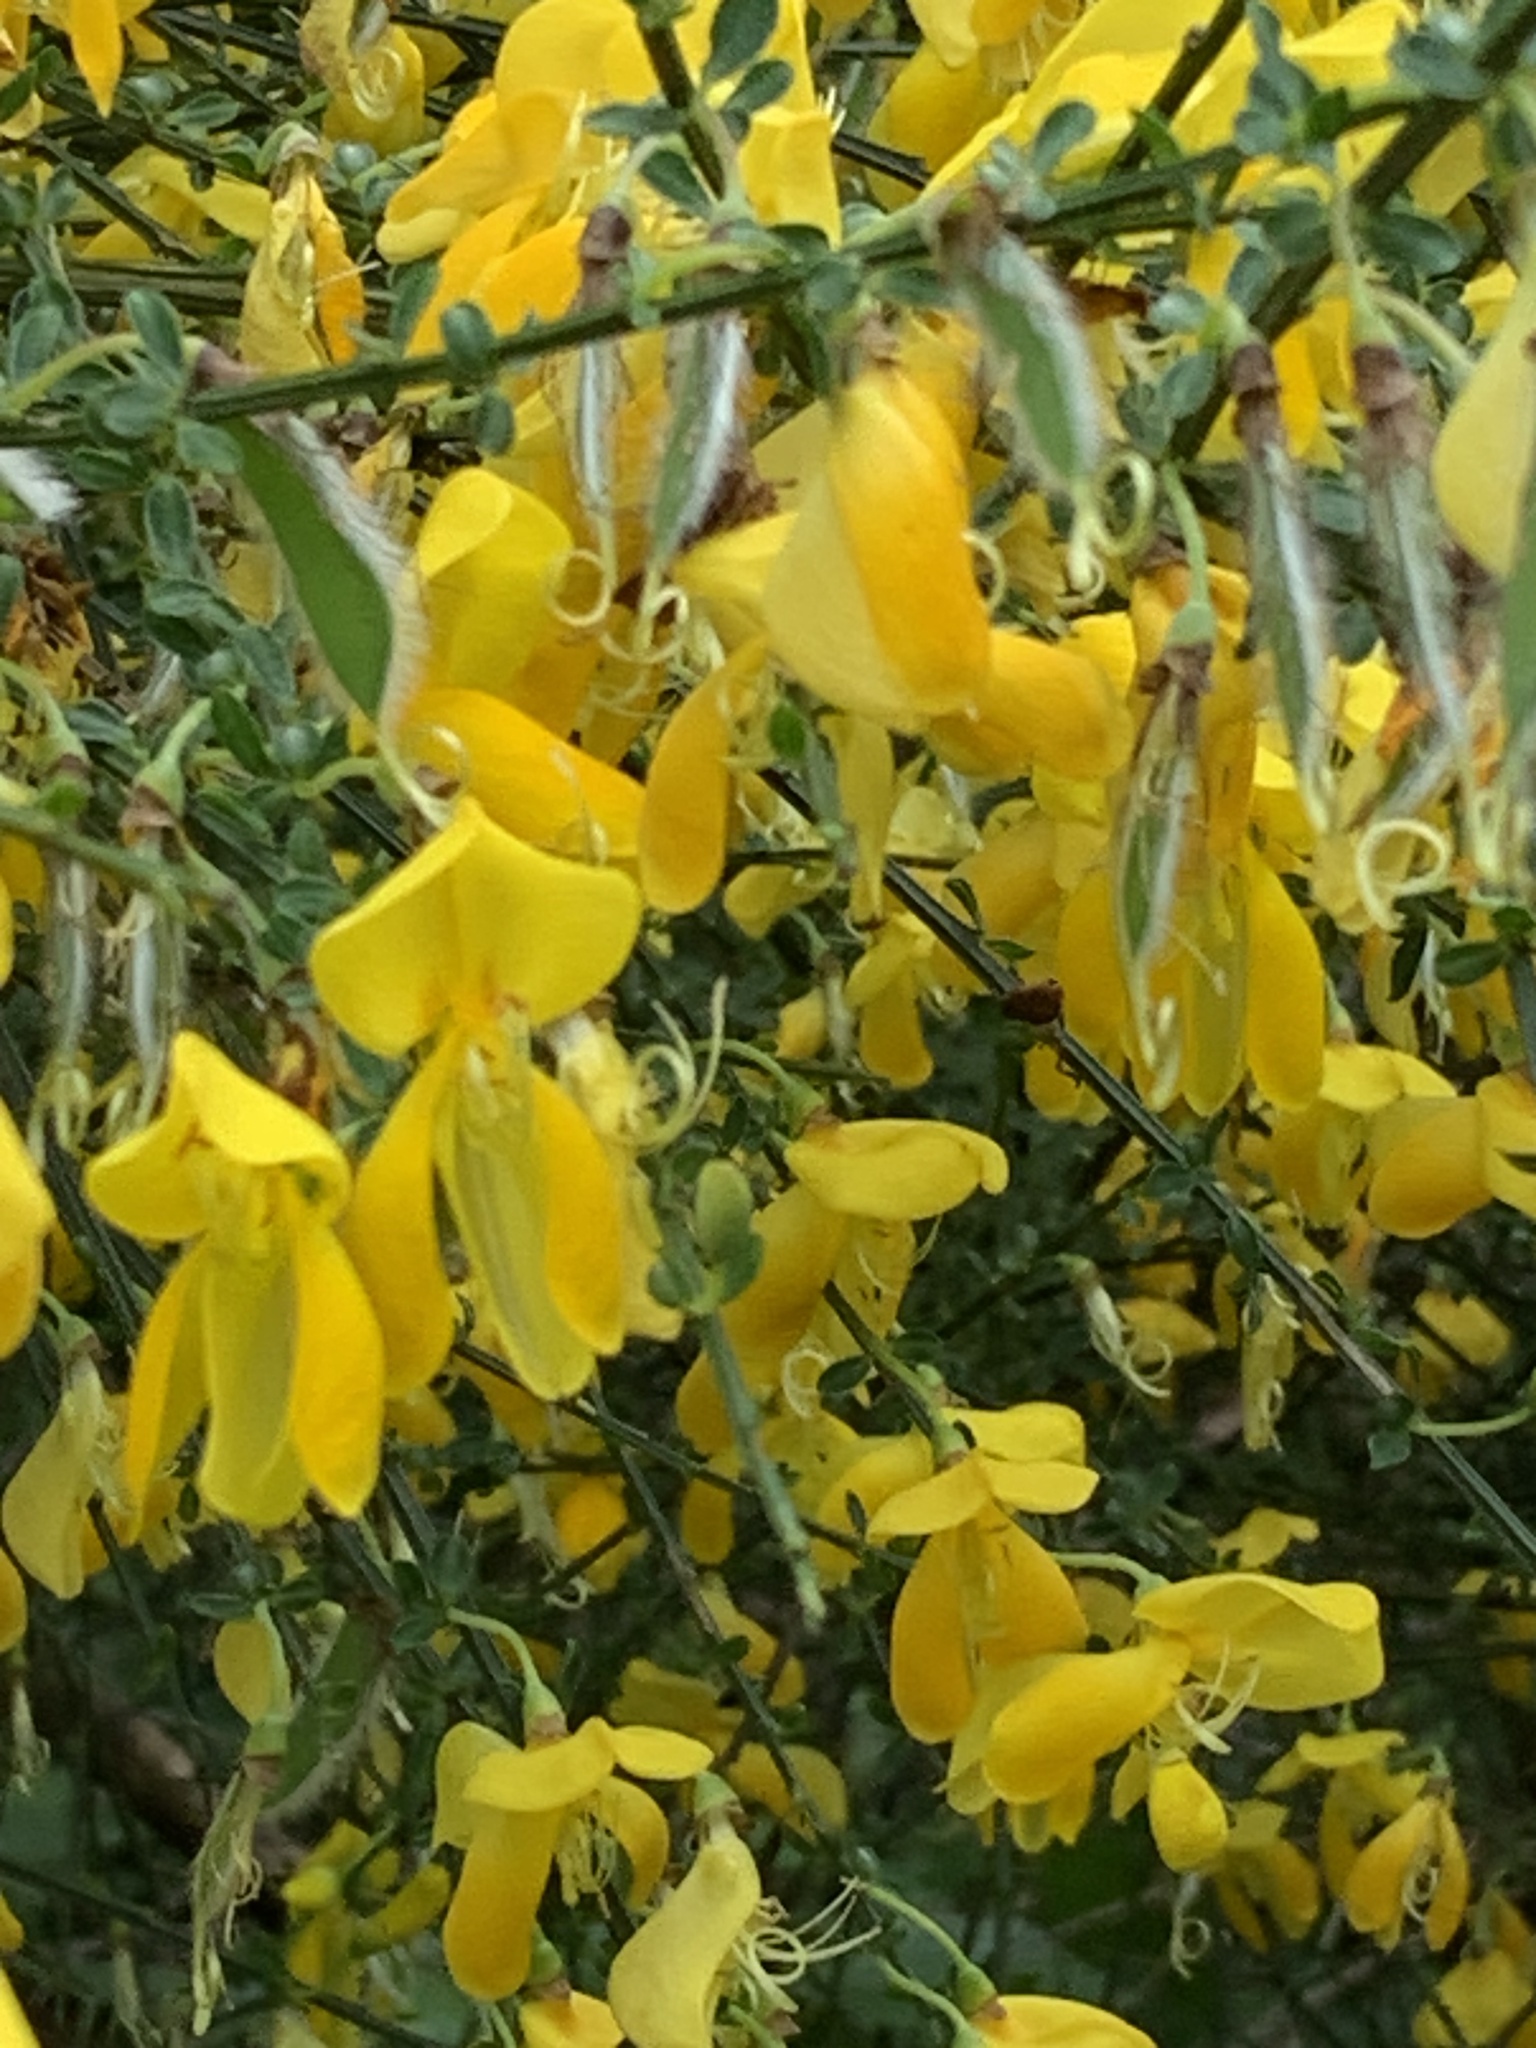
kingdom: Plantae
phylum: Tracheophyta
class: Magnoliopsida
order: Fabales
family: Fabaceae
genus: Cytisus
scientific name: Cytisus scoparius
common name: Scotch broom
